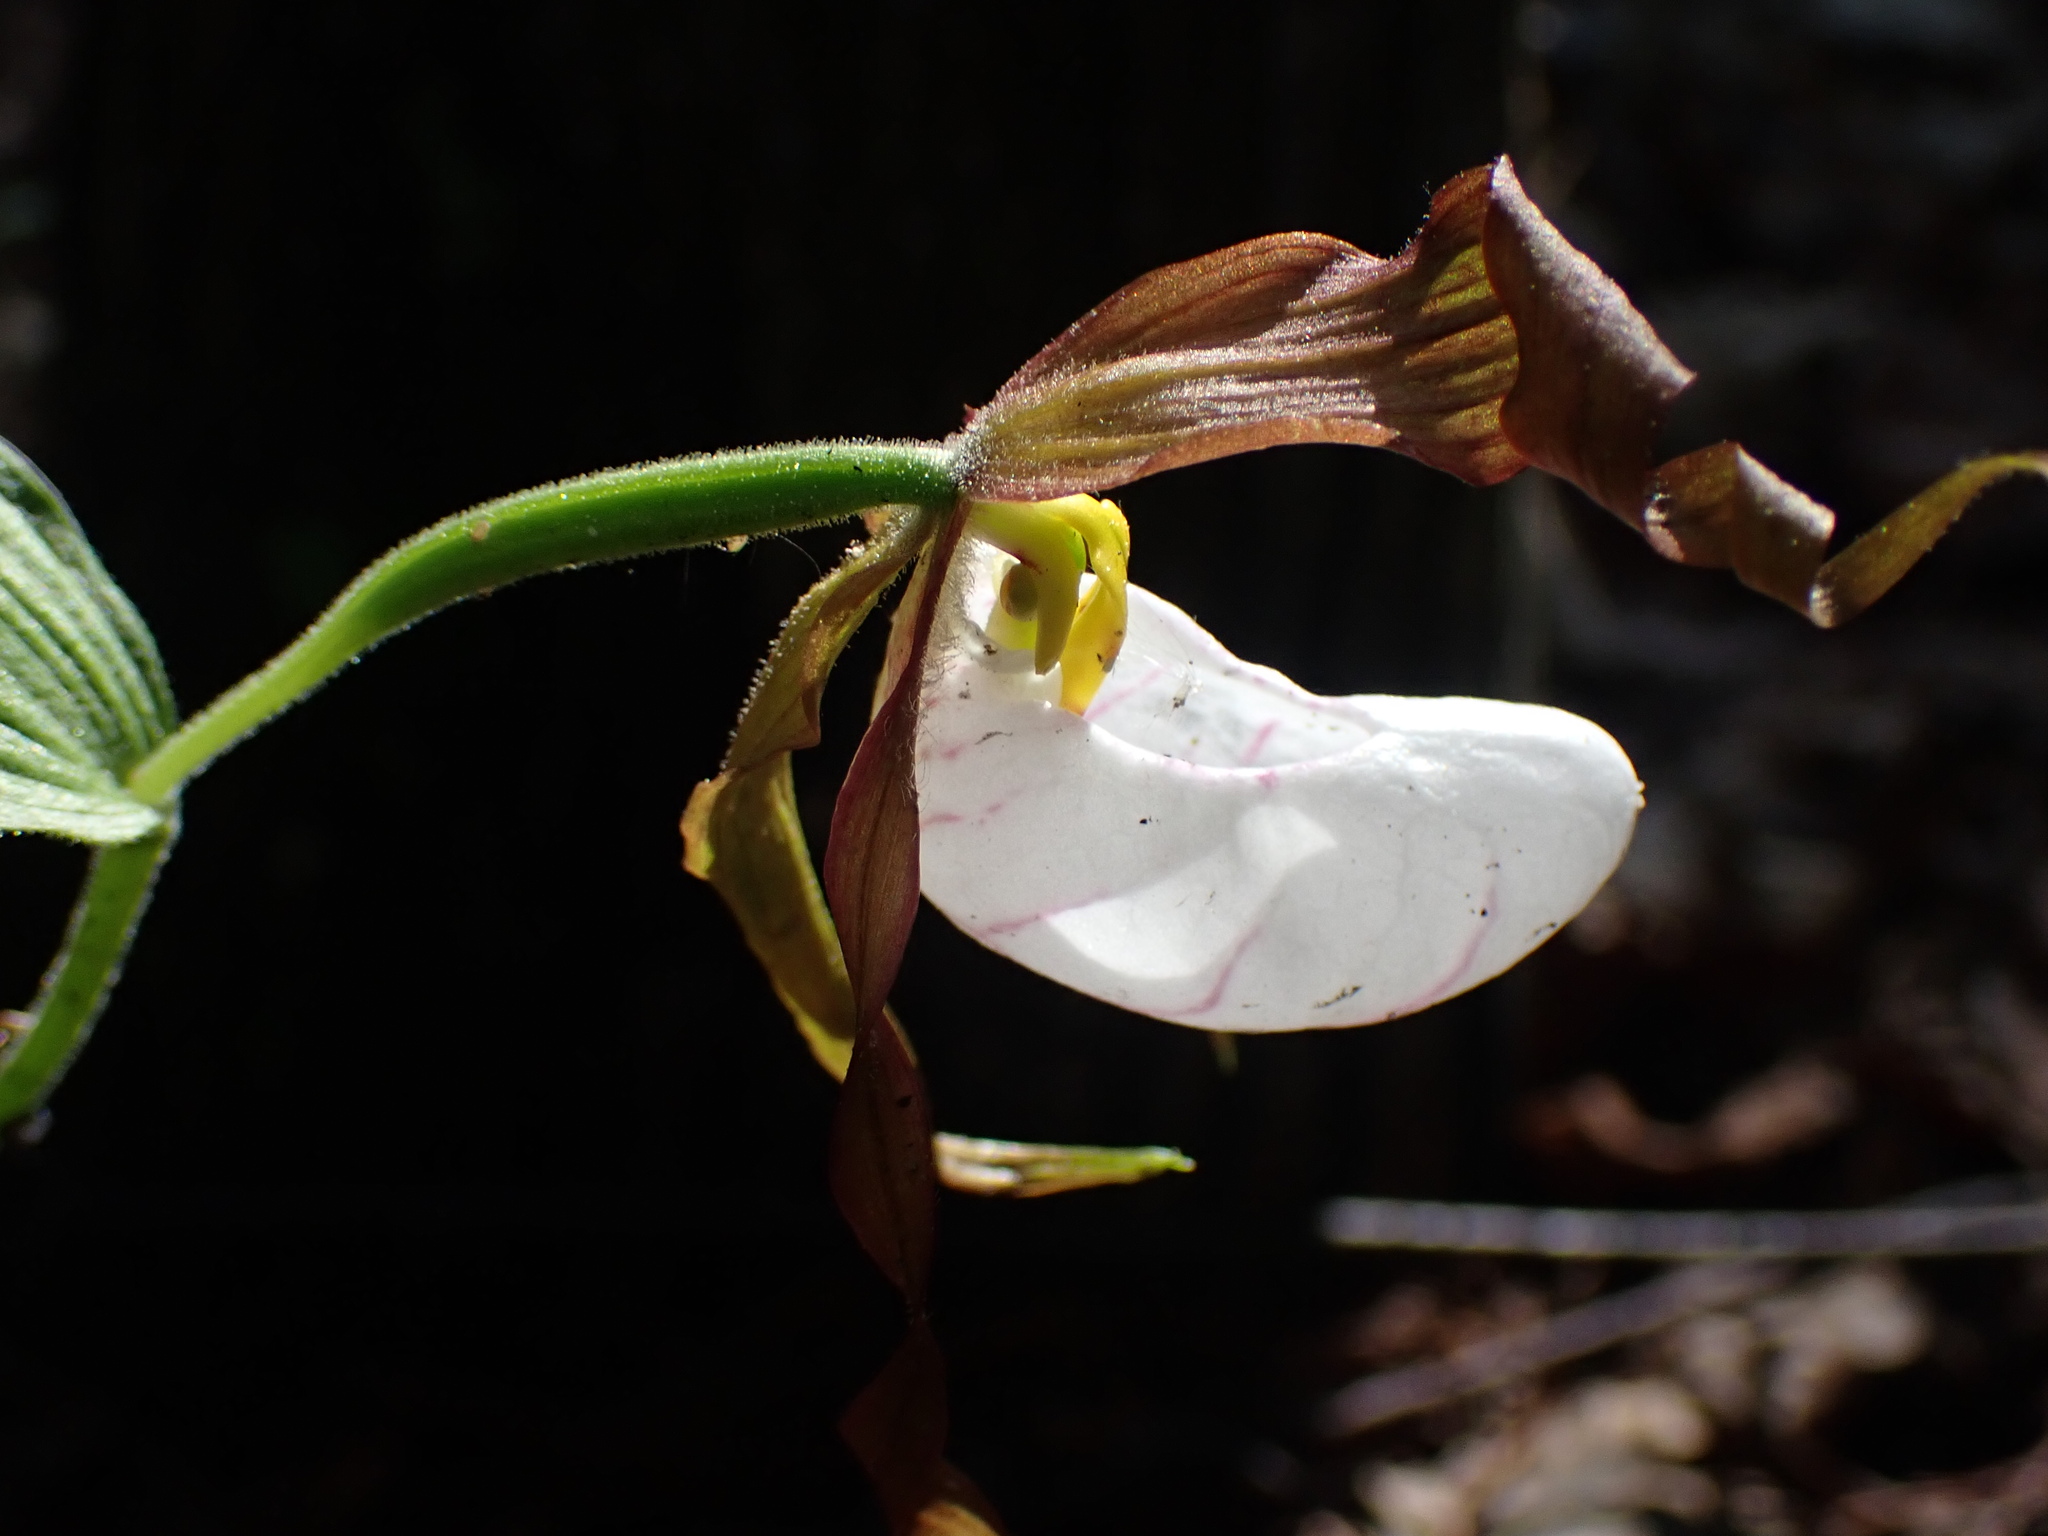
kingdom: Plantae
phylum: Tracheophyta
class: Liliopsida
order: Asparagales
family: Orchidaceae
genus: Cypripedium
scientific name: Cypripedium montanum
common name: Mountain lady's-slipper
